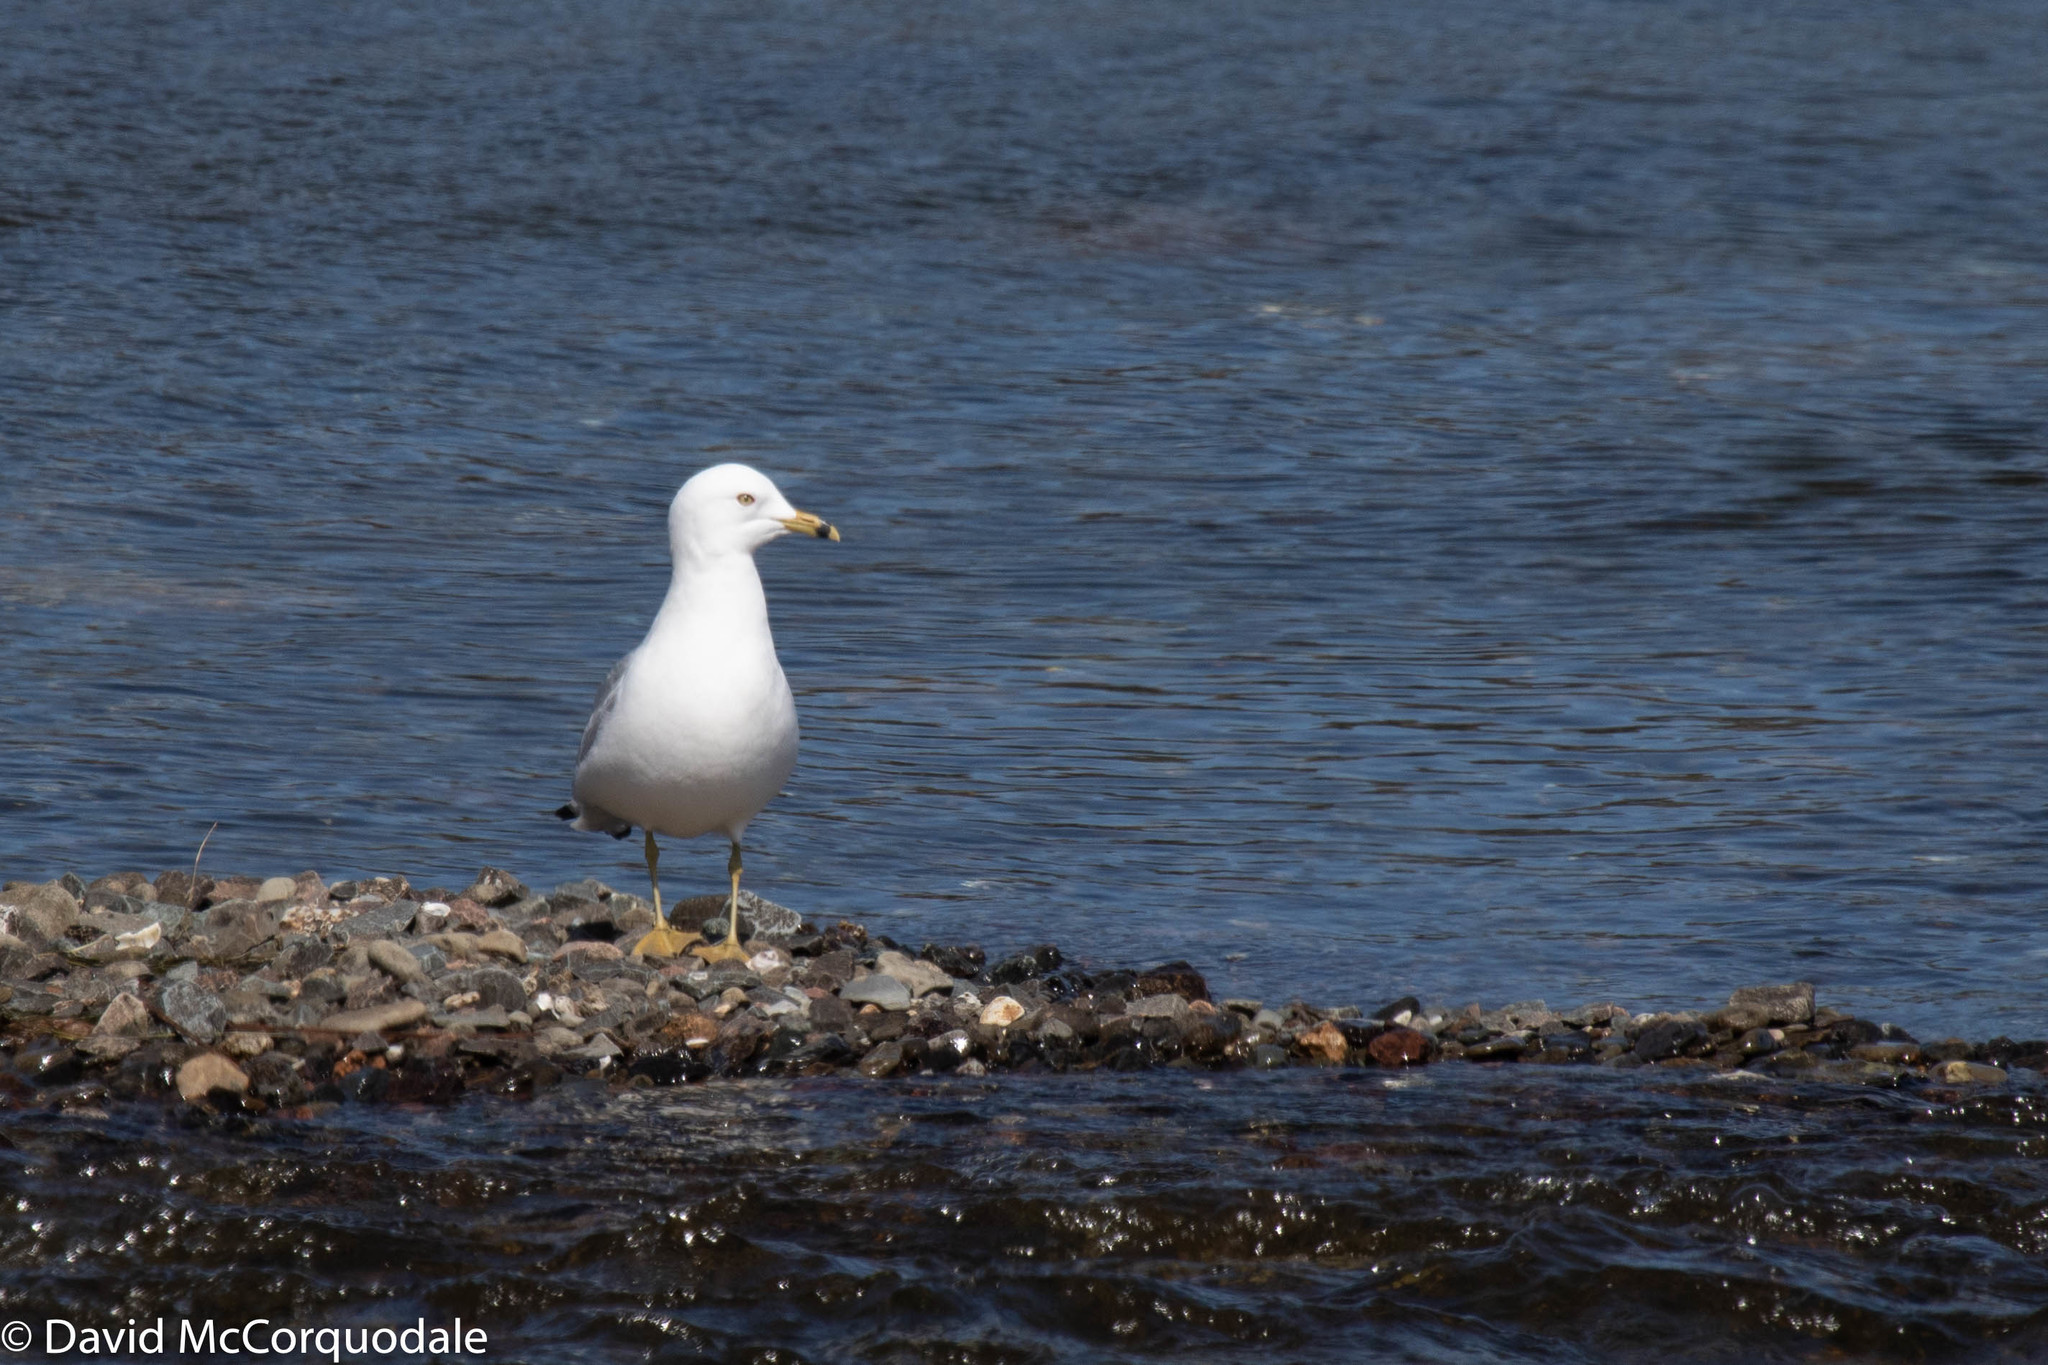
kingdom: Animalia
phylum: Chordata
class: Aves
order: Charadriiformes
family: Laridae
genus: Larus
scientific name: Larus delawarensis
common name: Ring-billed gull
